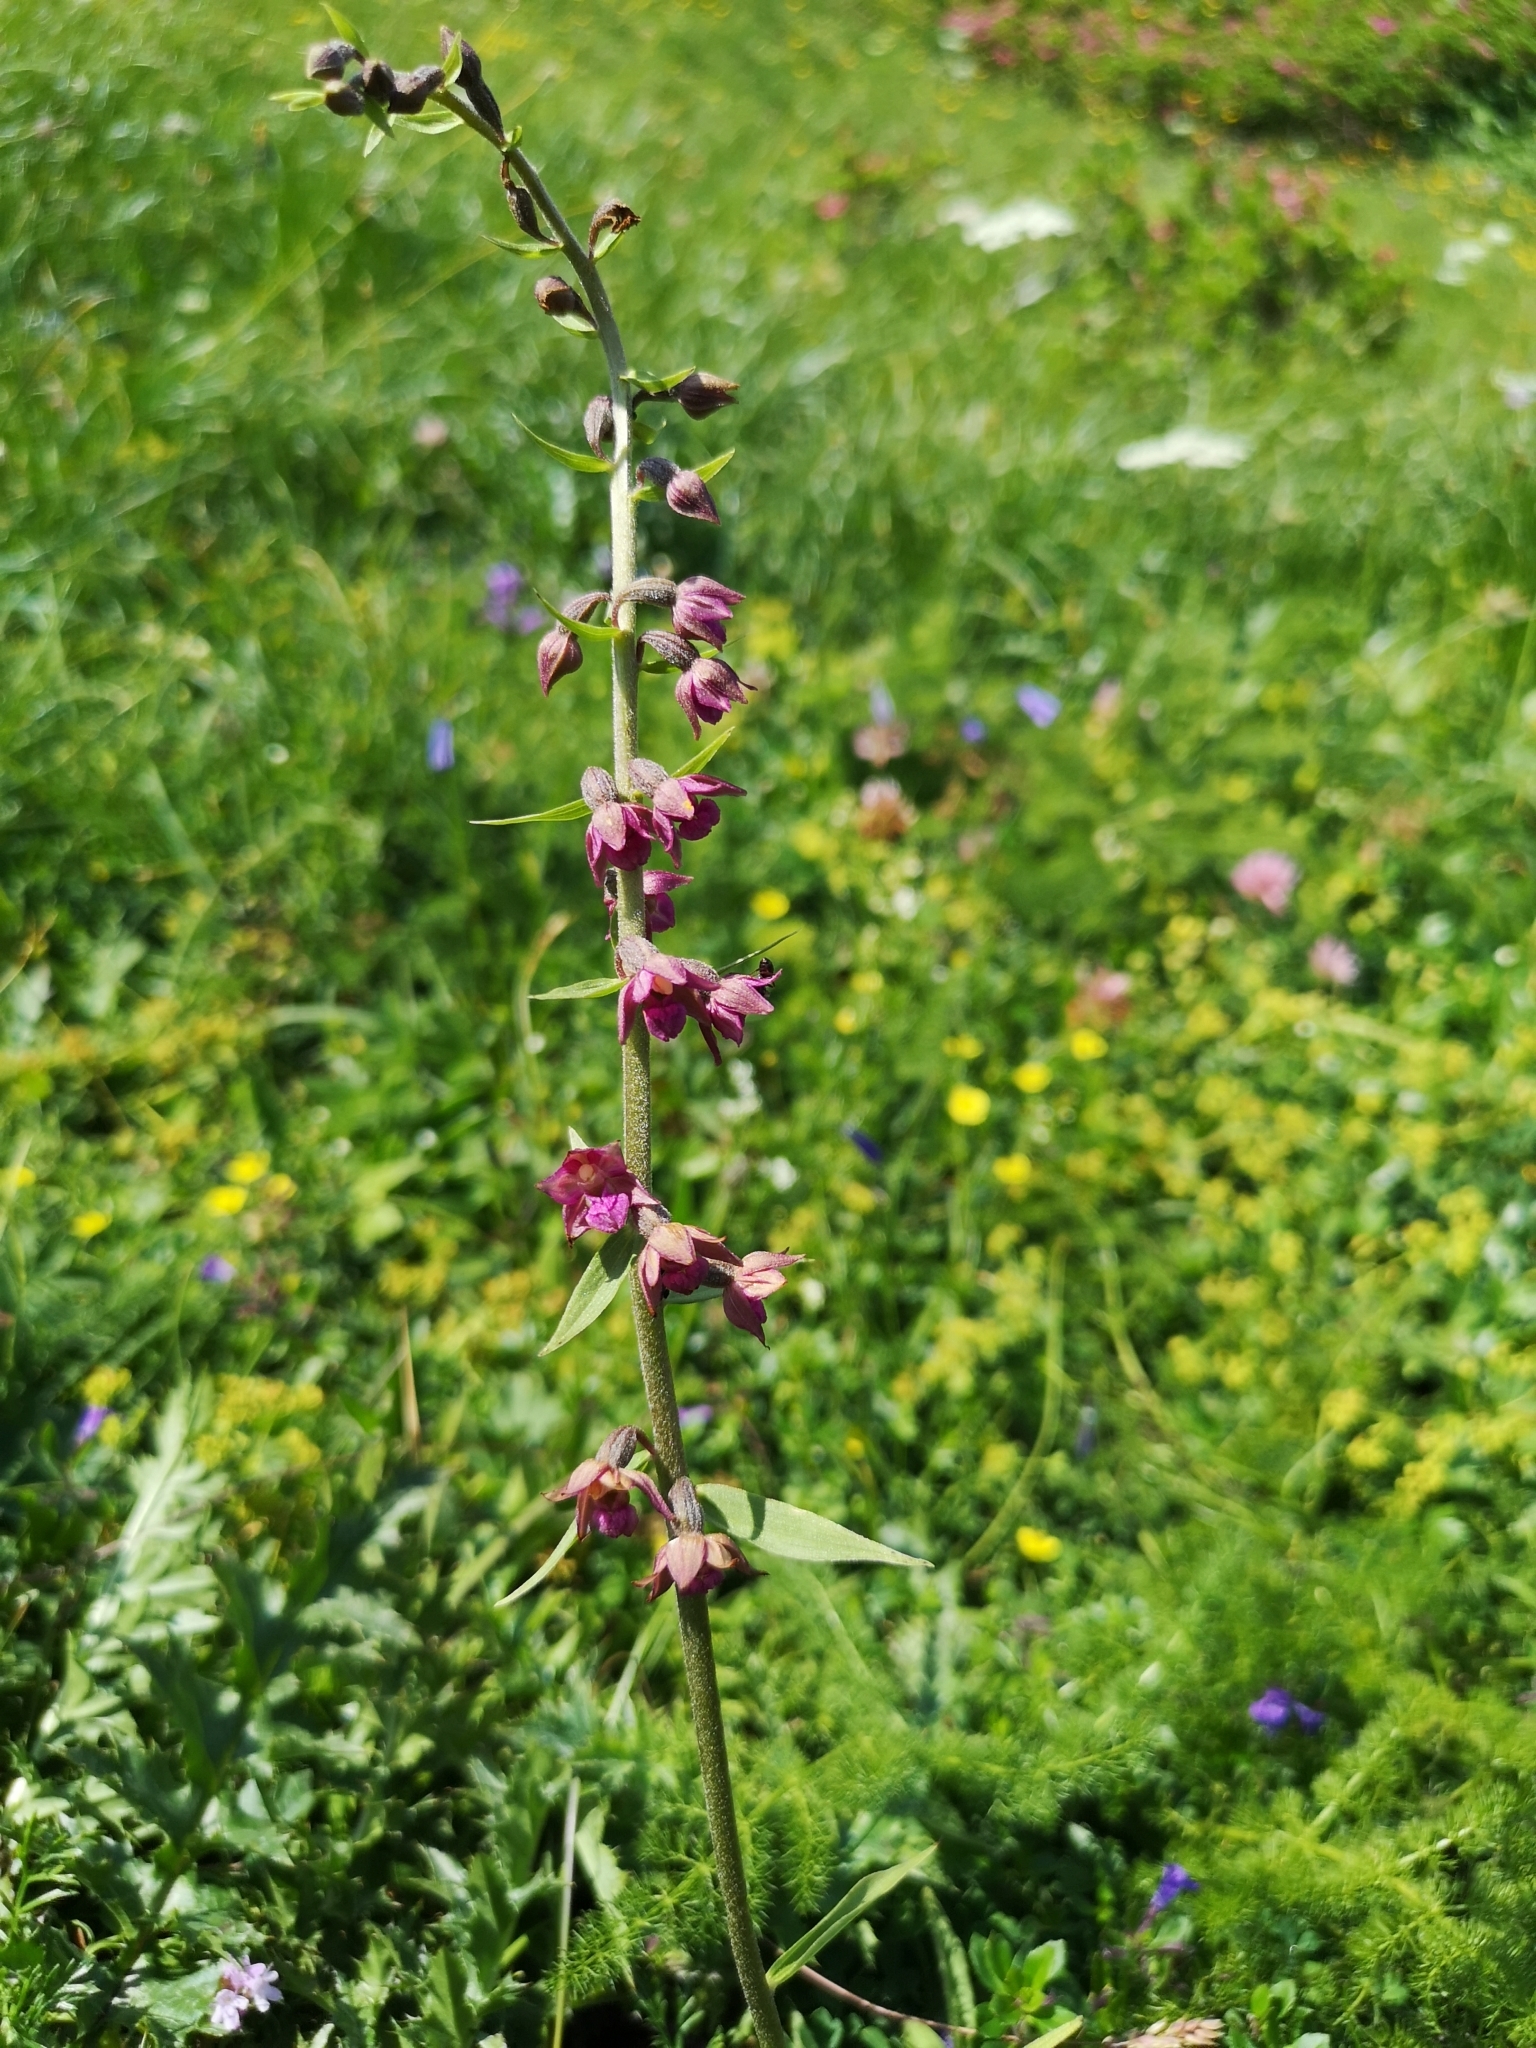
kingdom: Plantae
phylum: Tracheophyta
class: Liliopsida
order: Asparagales
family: Orchidaceae
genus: Epipactis
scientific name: Epipactis atrorubens
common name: Dark-red helleborine
